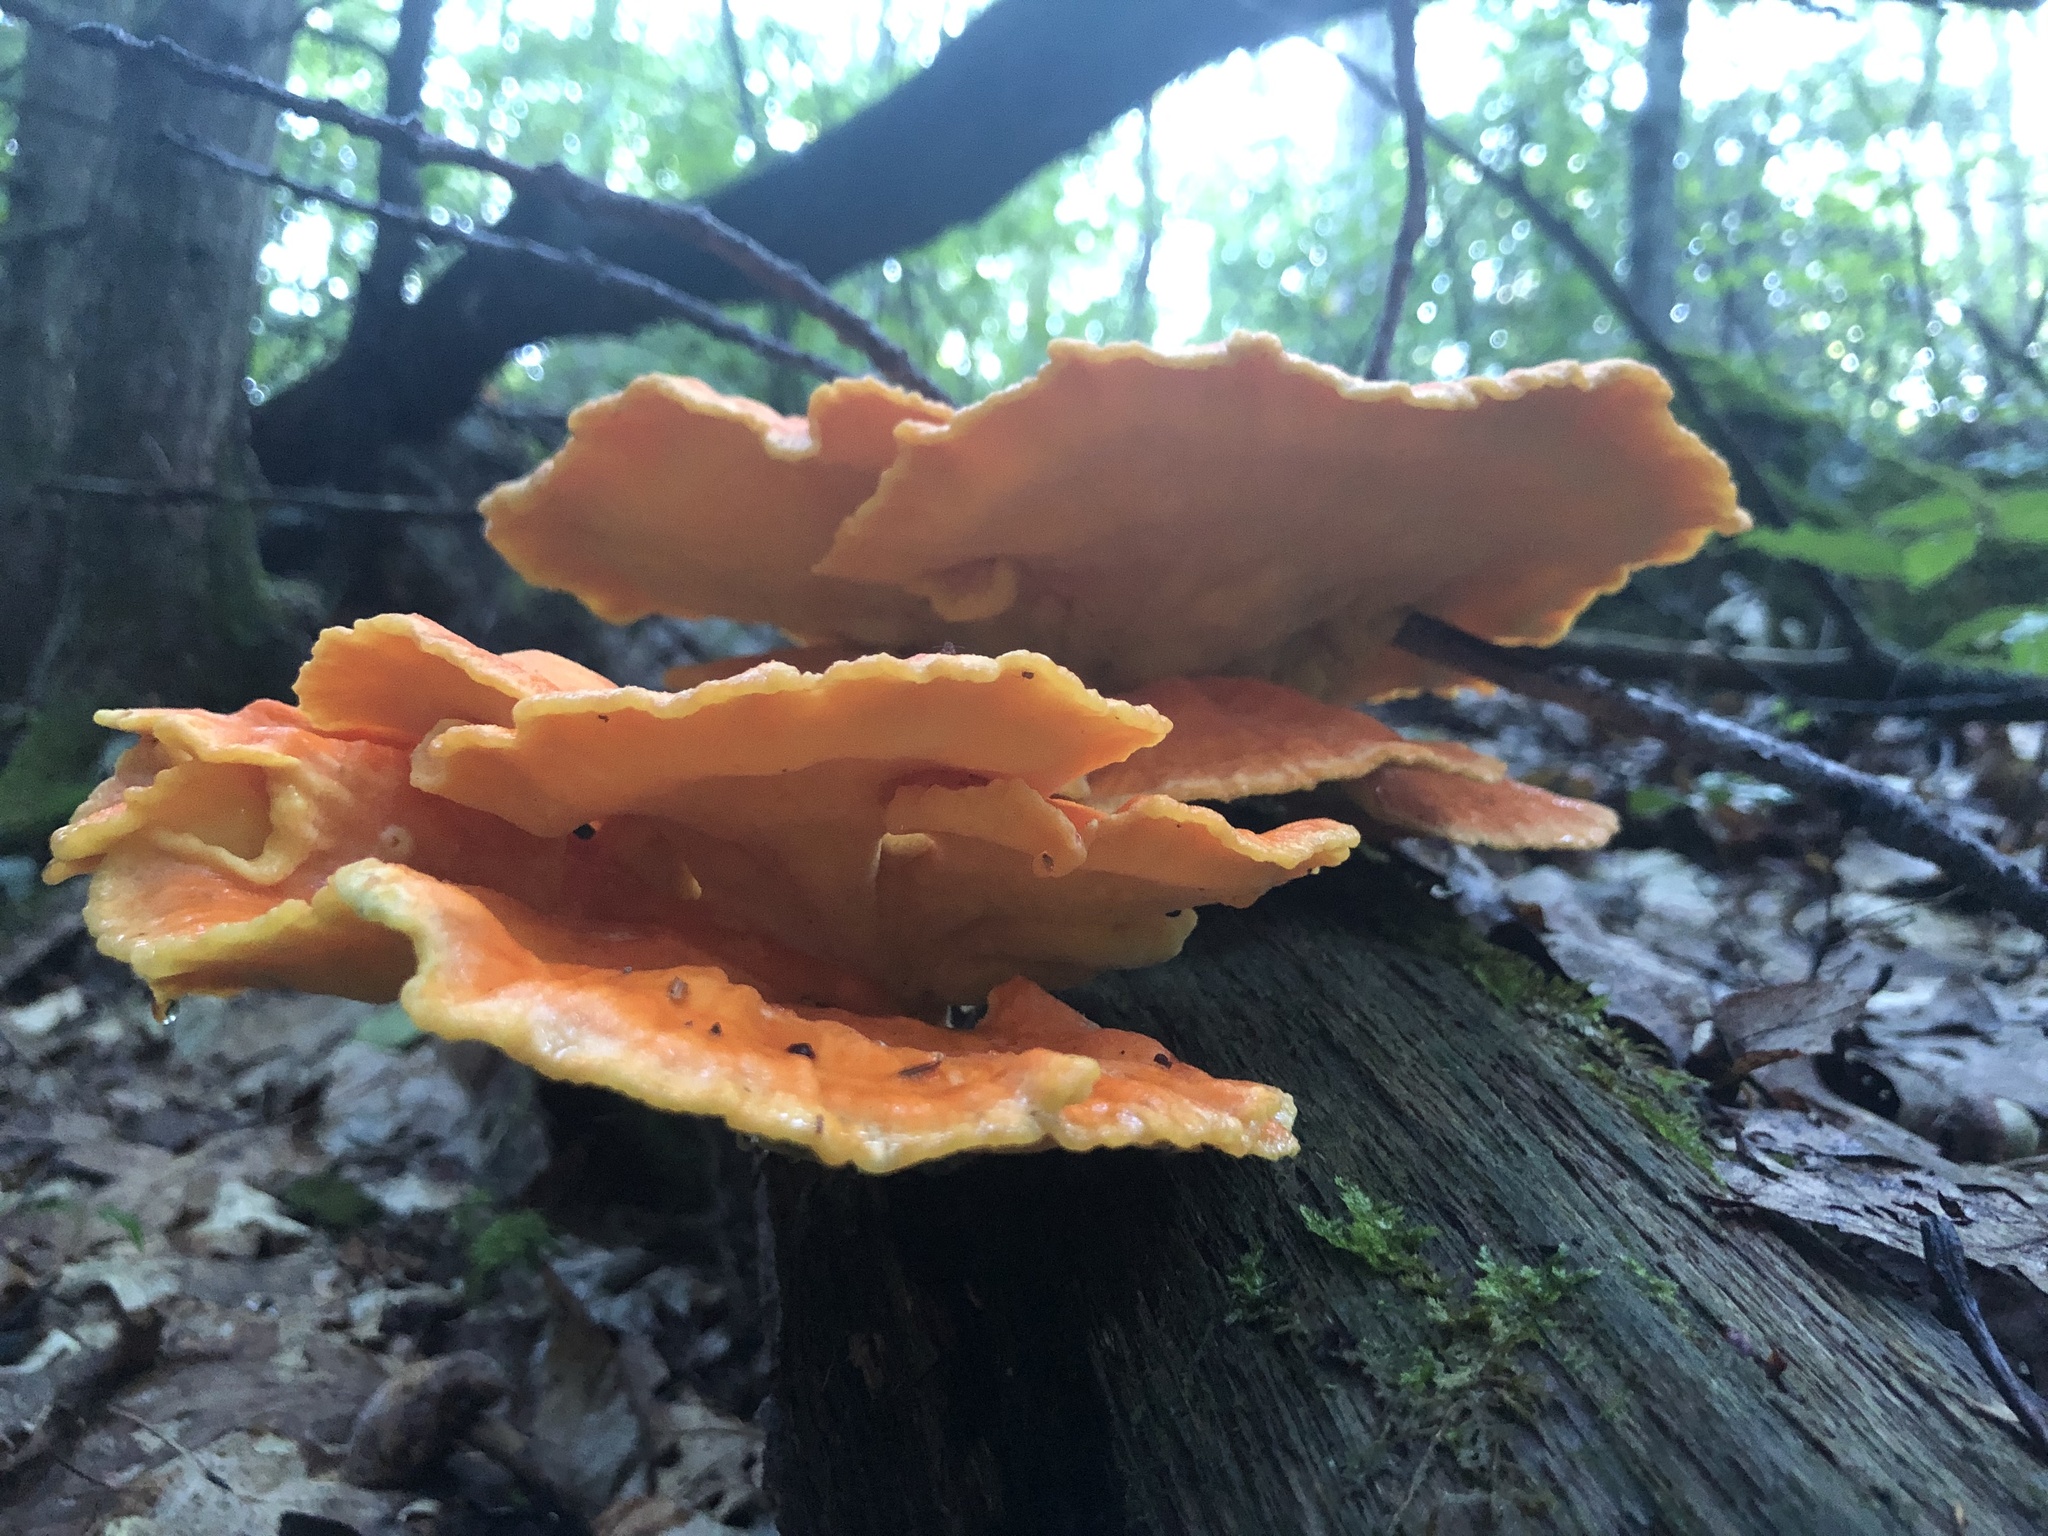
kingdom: Fungi
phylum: Basidiomycota
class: Agaricomycetes
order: Polyporales
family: Laetiporaceae
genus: Laetiporus
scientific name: Laetiporus sulphureus
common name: Chicken of the woods
